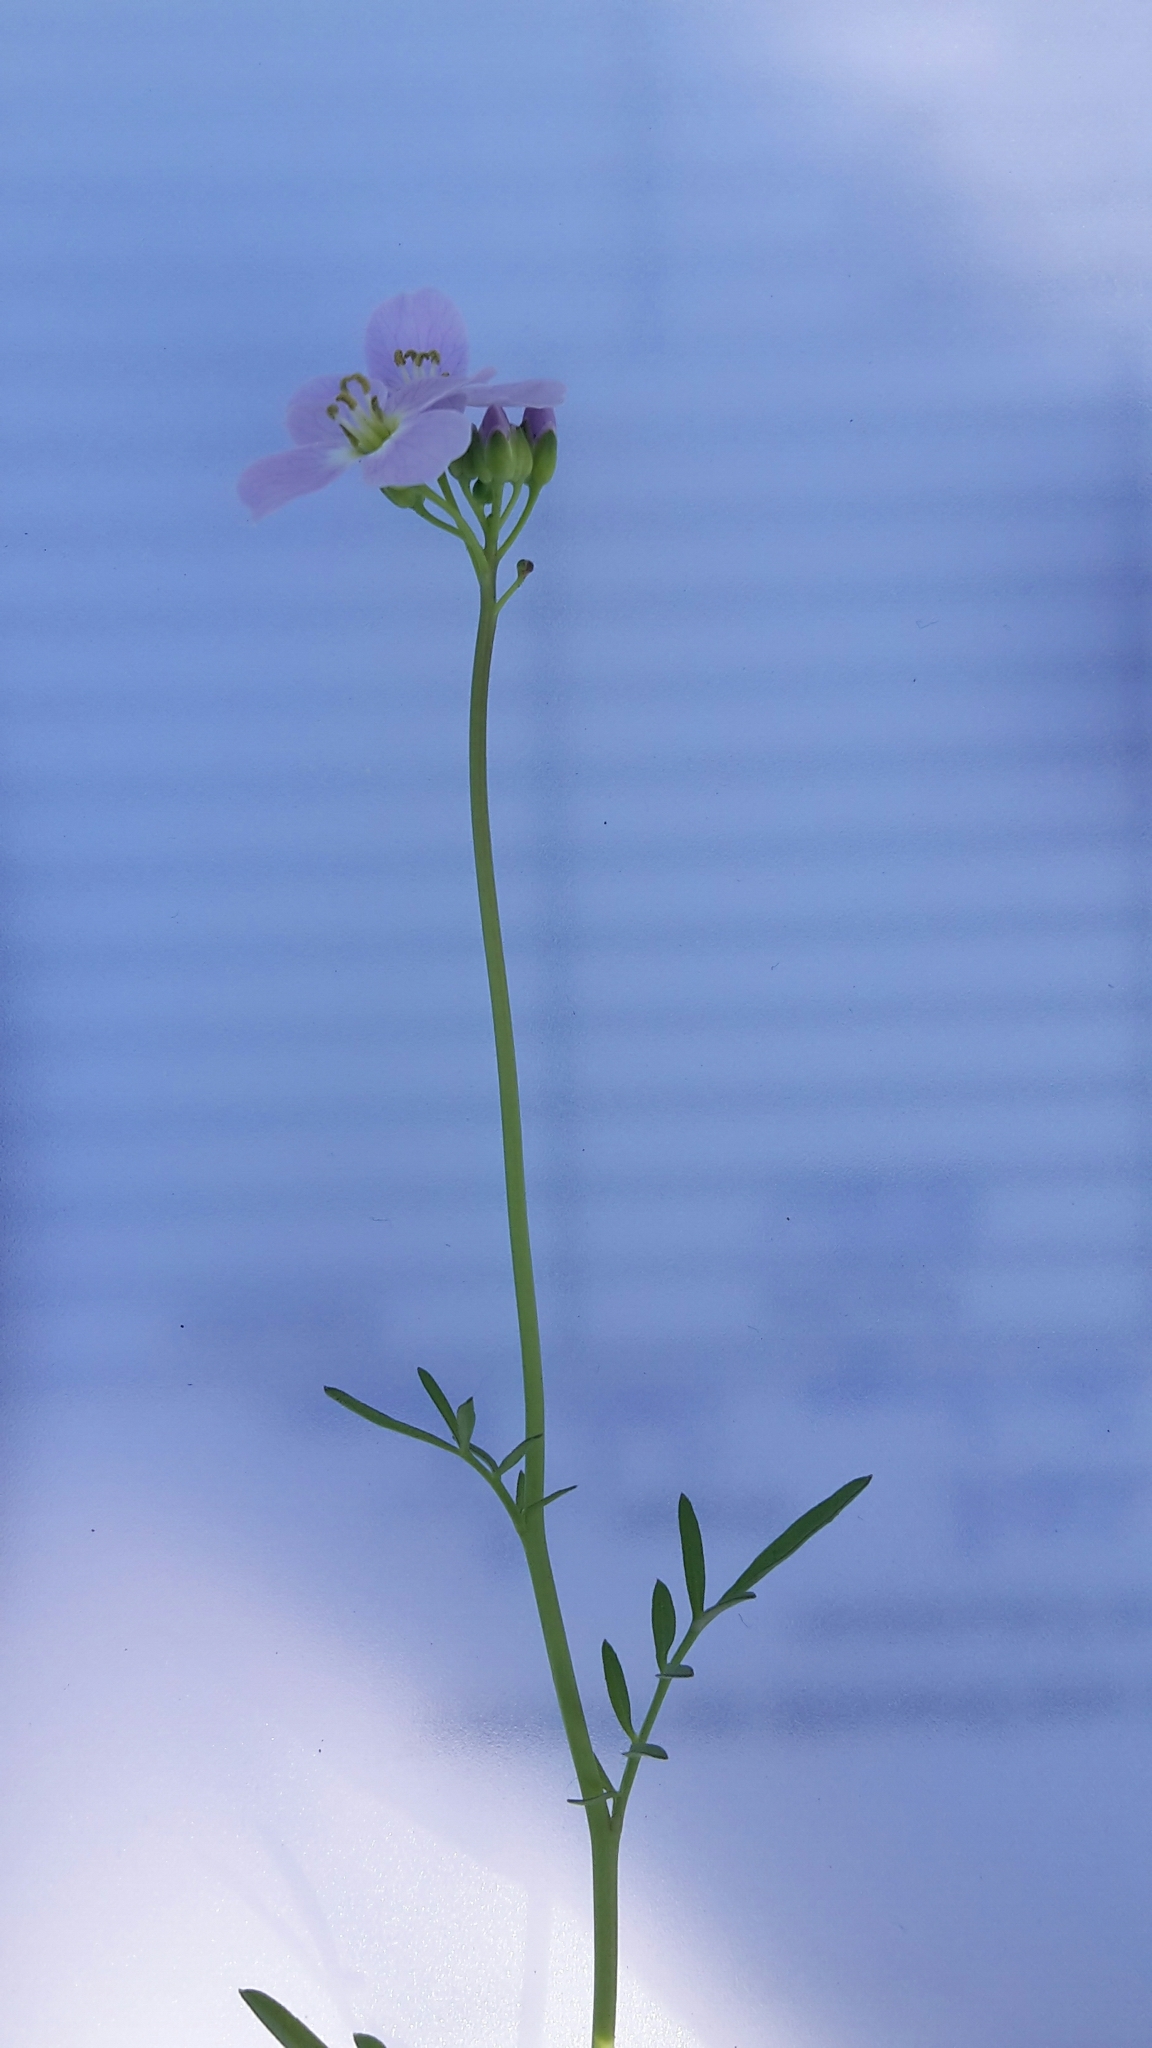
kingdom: Plantae
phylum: Tracheophyta
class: Magnoliopsida
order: Brassicales
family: Brassicaceae
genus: Cardamine
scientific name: Cardamine pratensis
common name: Cuckoo flower
